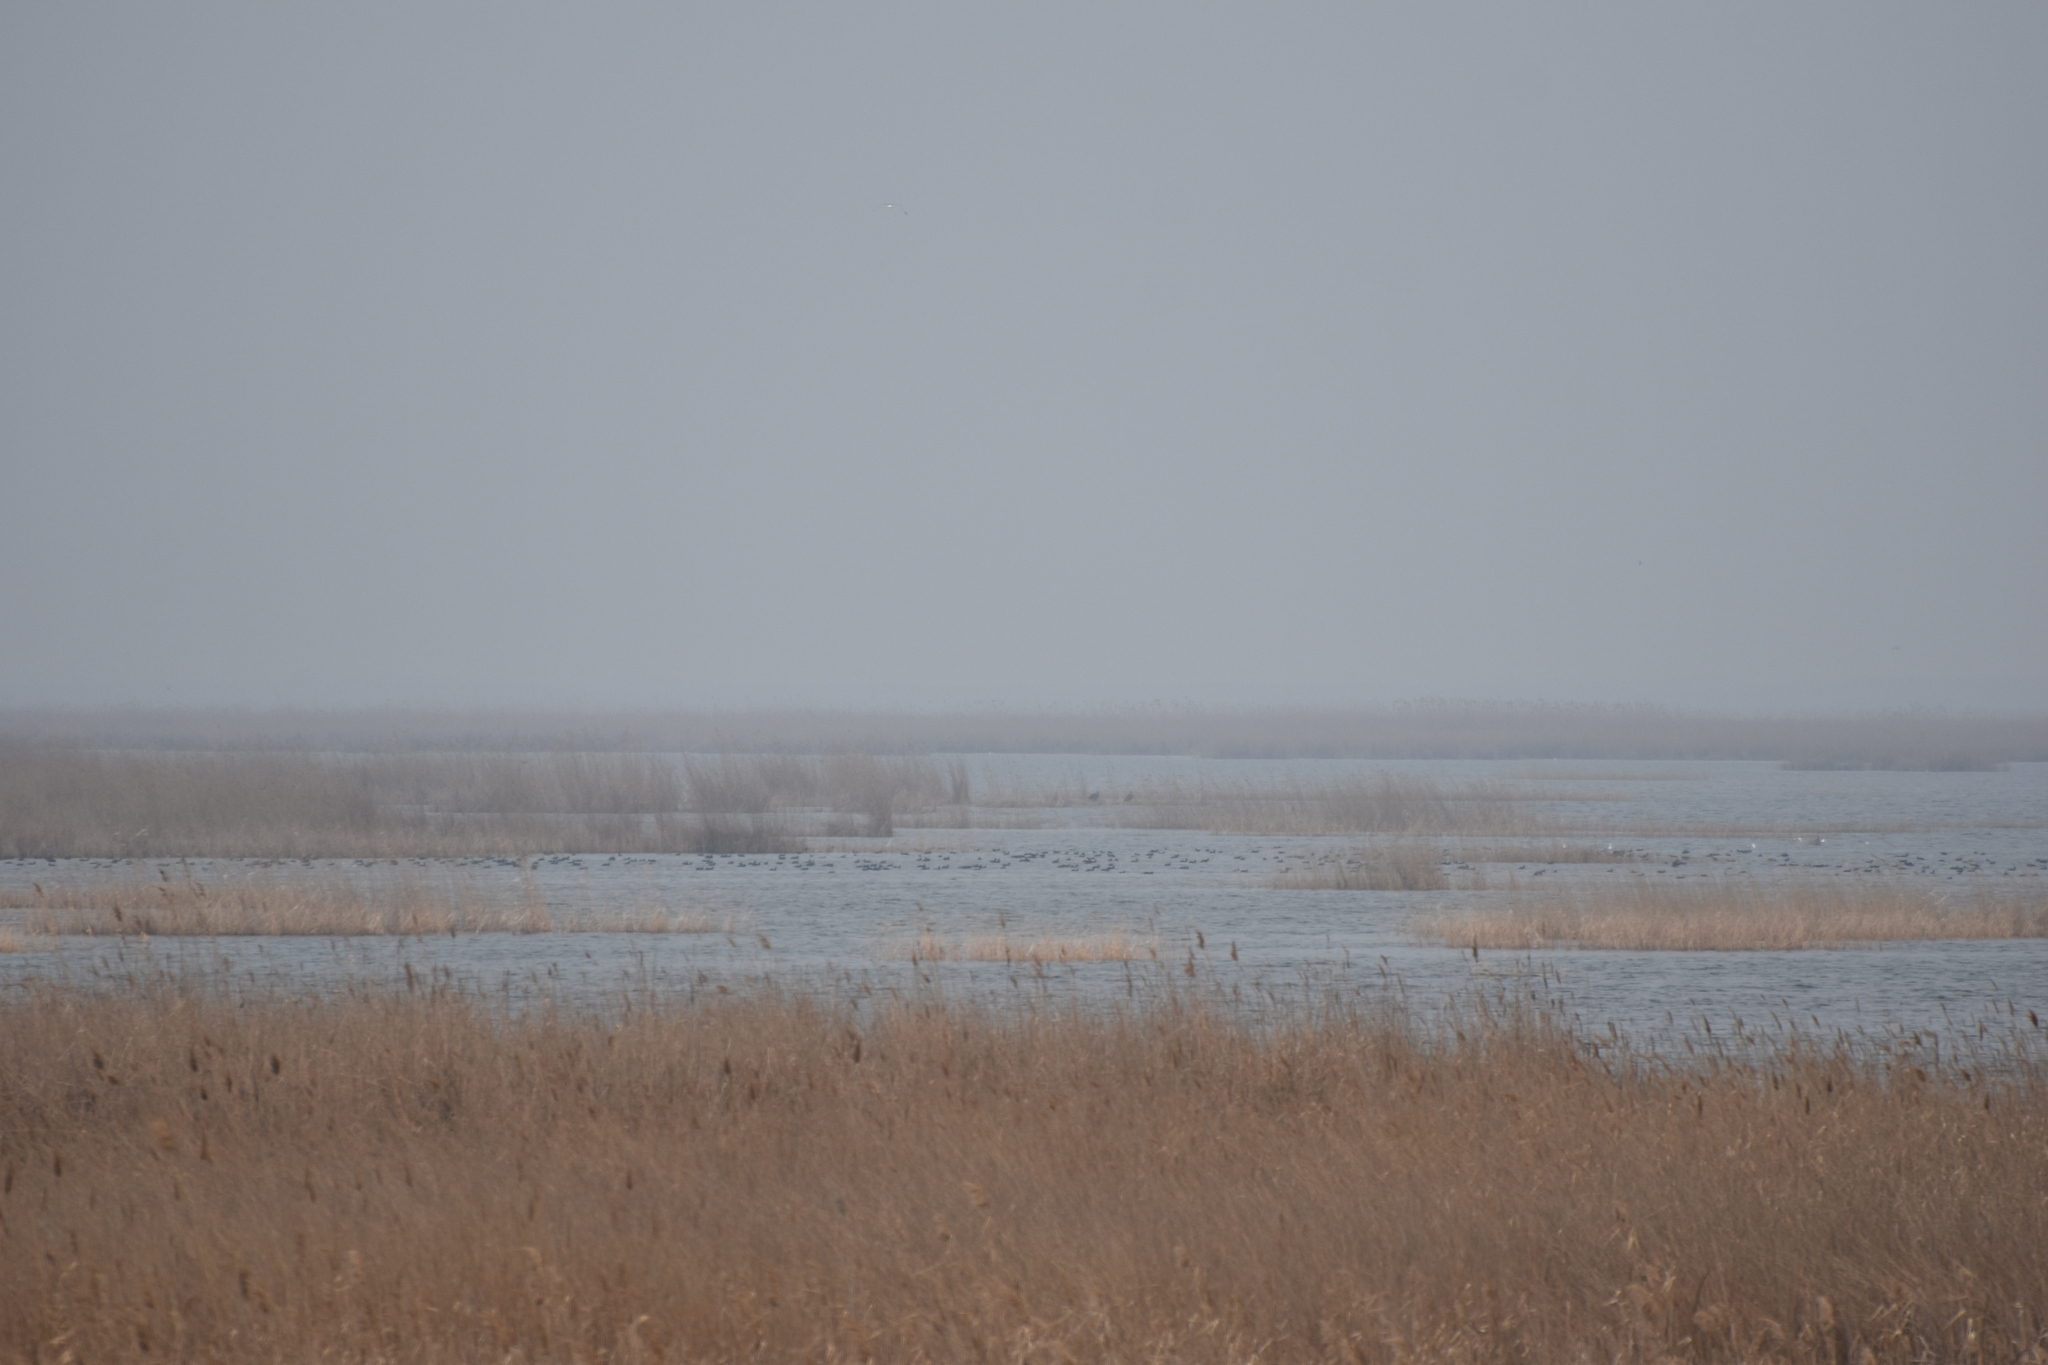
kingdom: Animalia
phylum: Chordata
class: Aves
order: Anseriformes
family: Anatidae
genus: Anas
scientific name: Anas platyrhynchos
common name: Mallard
